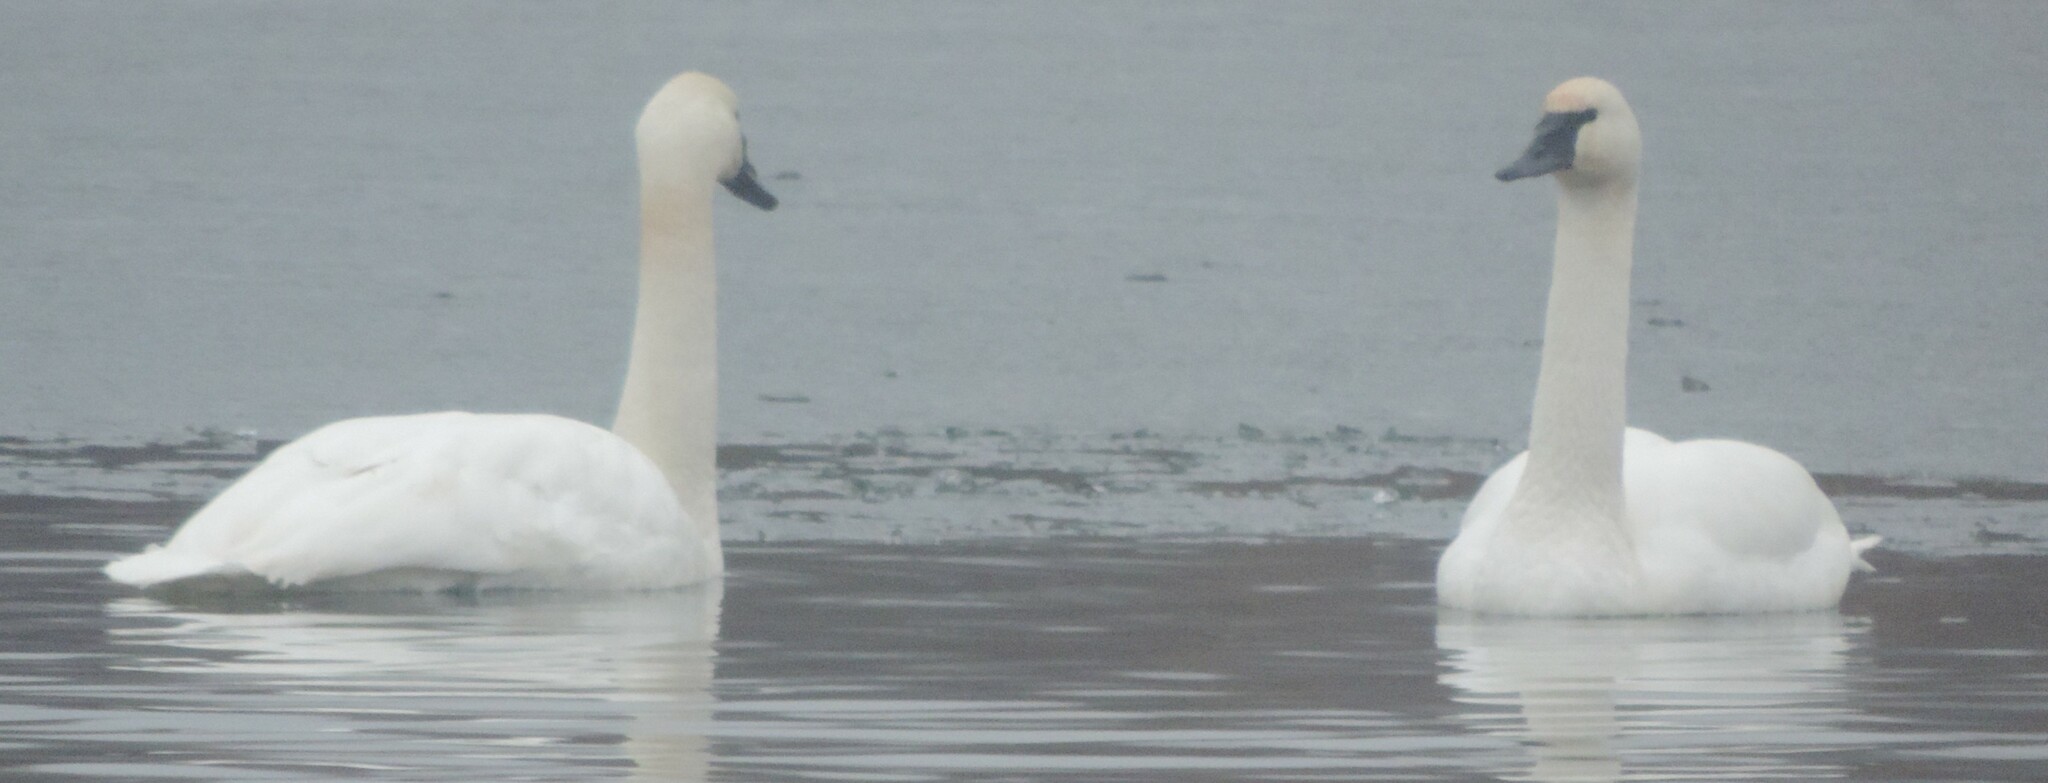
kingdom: Animalia
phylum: Chordata
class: Aves
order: Anseriformes
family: Anatidae
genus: Cygnus
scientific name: Cygnus buccinator
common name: Trumpeter swan
